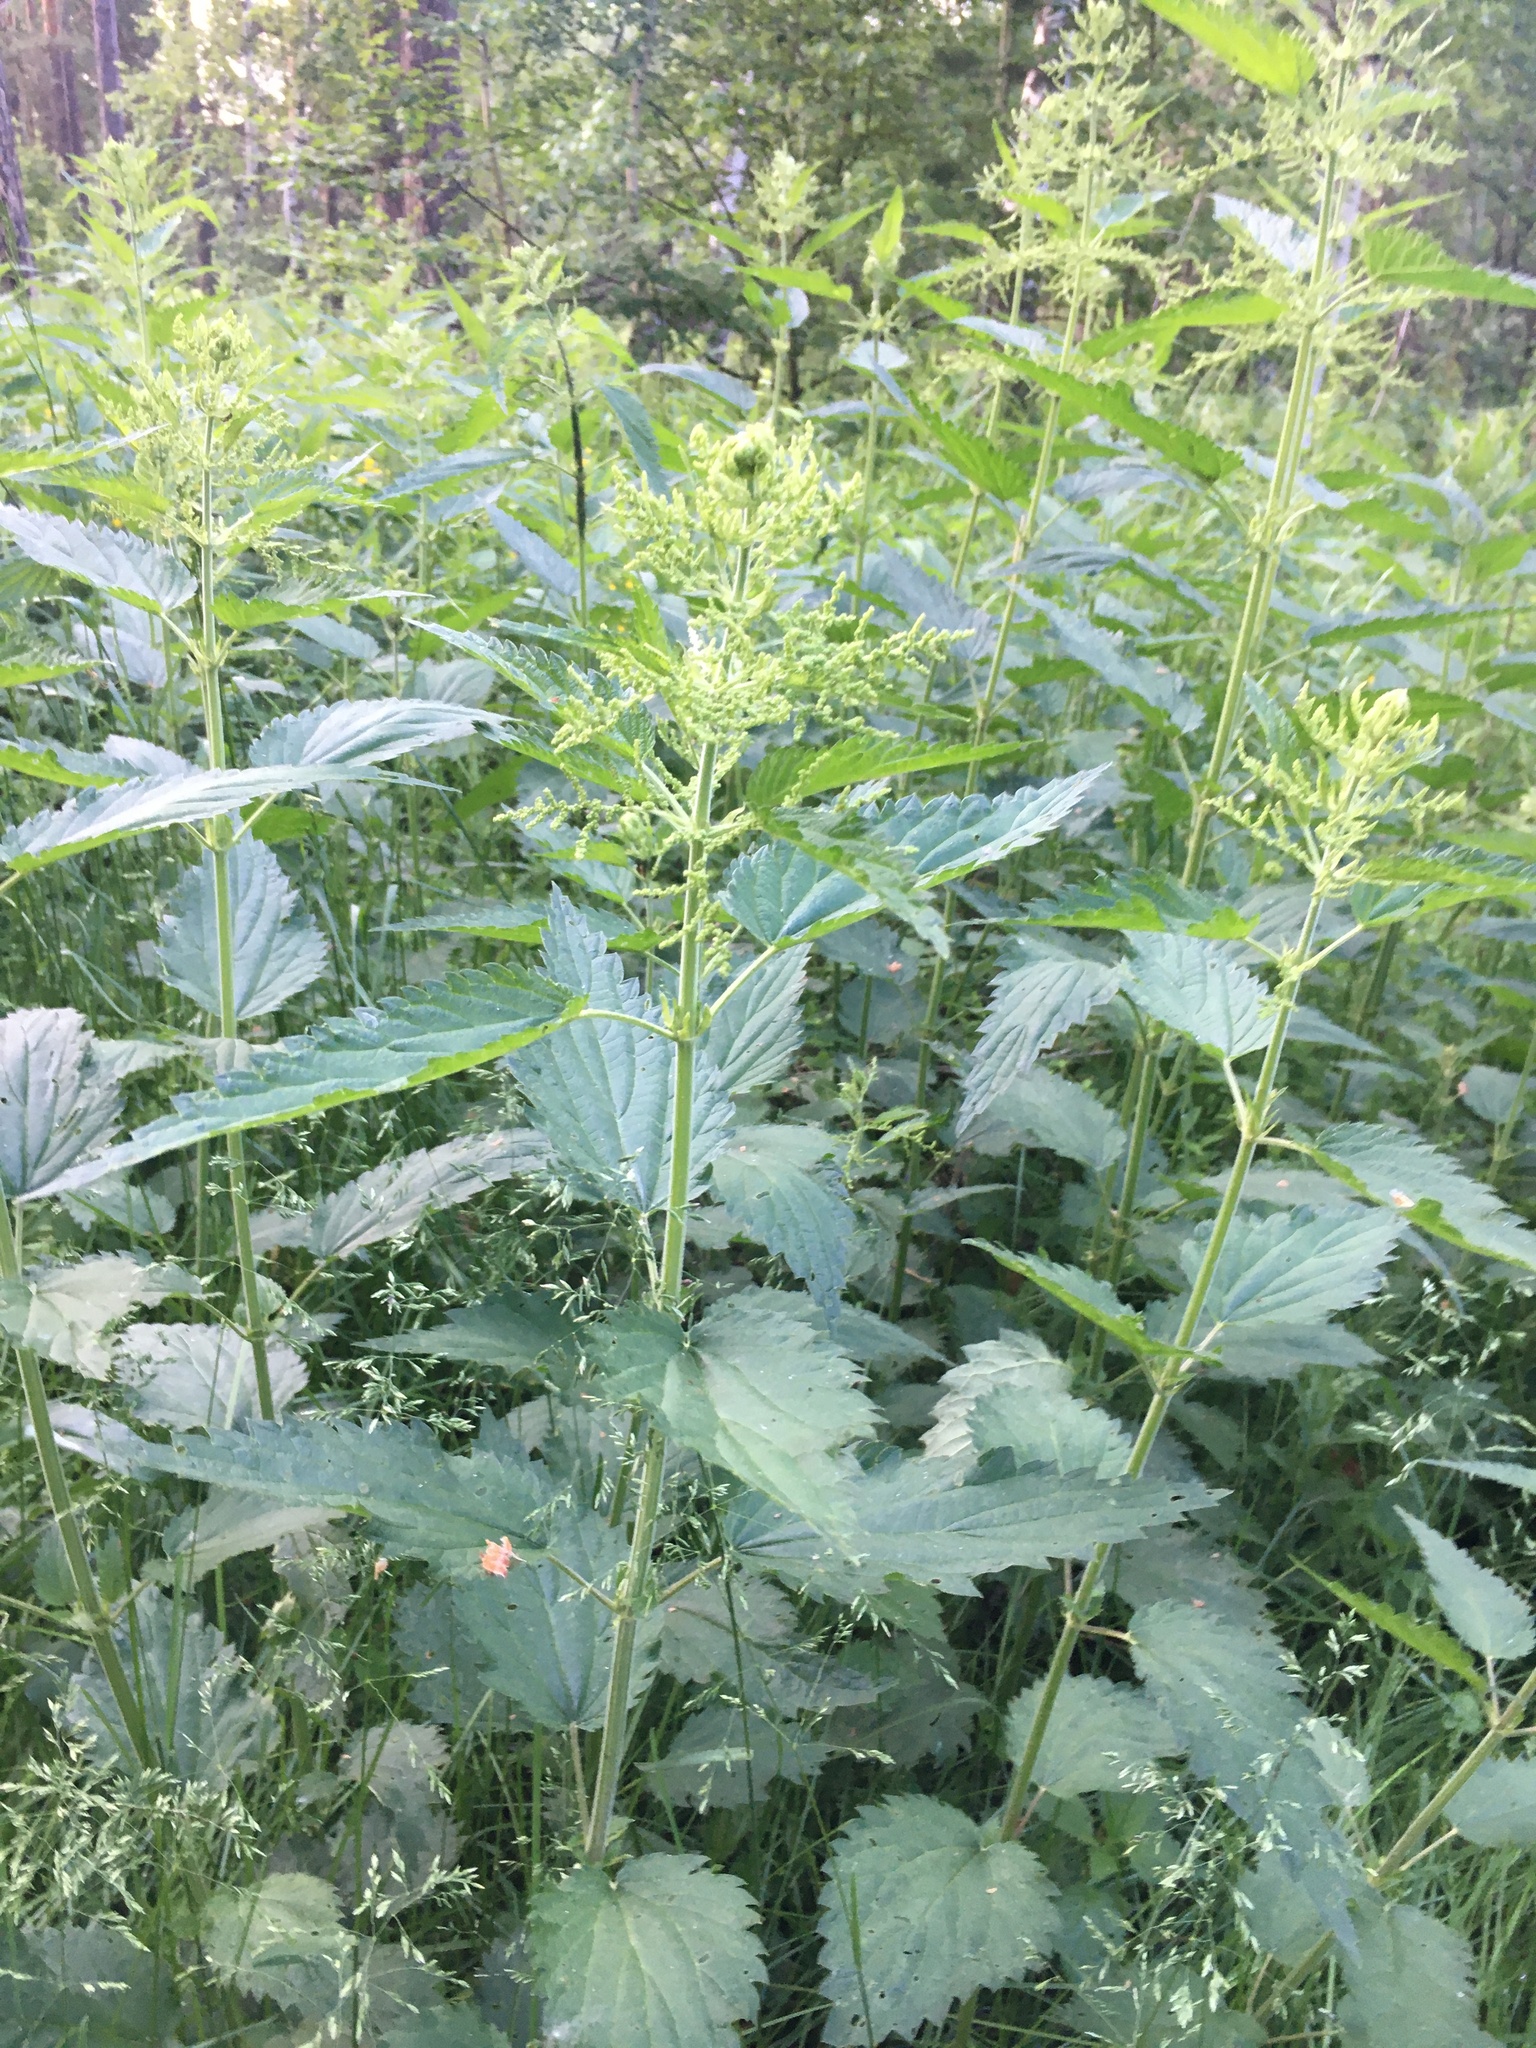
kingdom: Plantae
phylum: Tracheophyta
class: Magnoliopsida
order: Rosales
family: Urticaceae
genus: Urtica
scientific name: Urtica dioica
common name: Common nettle
